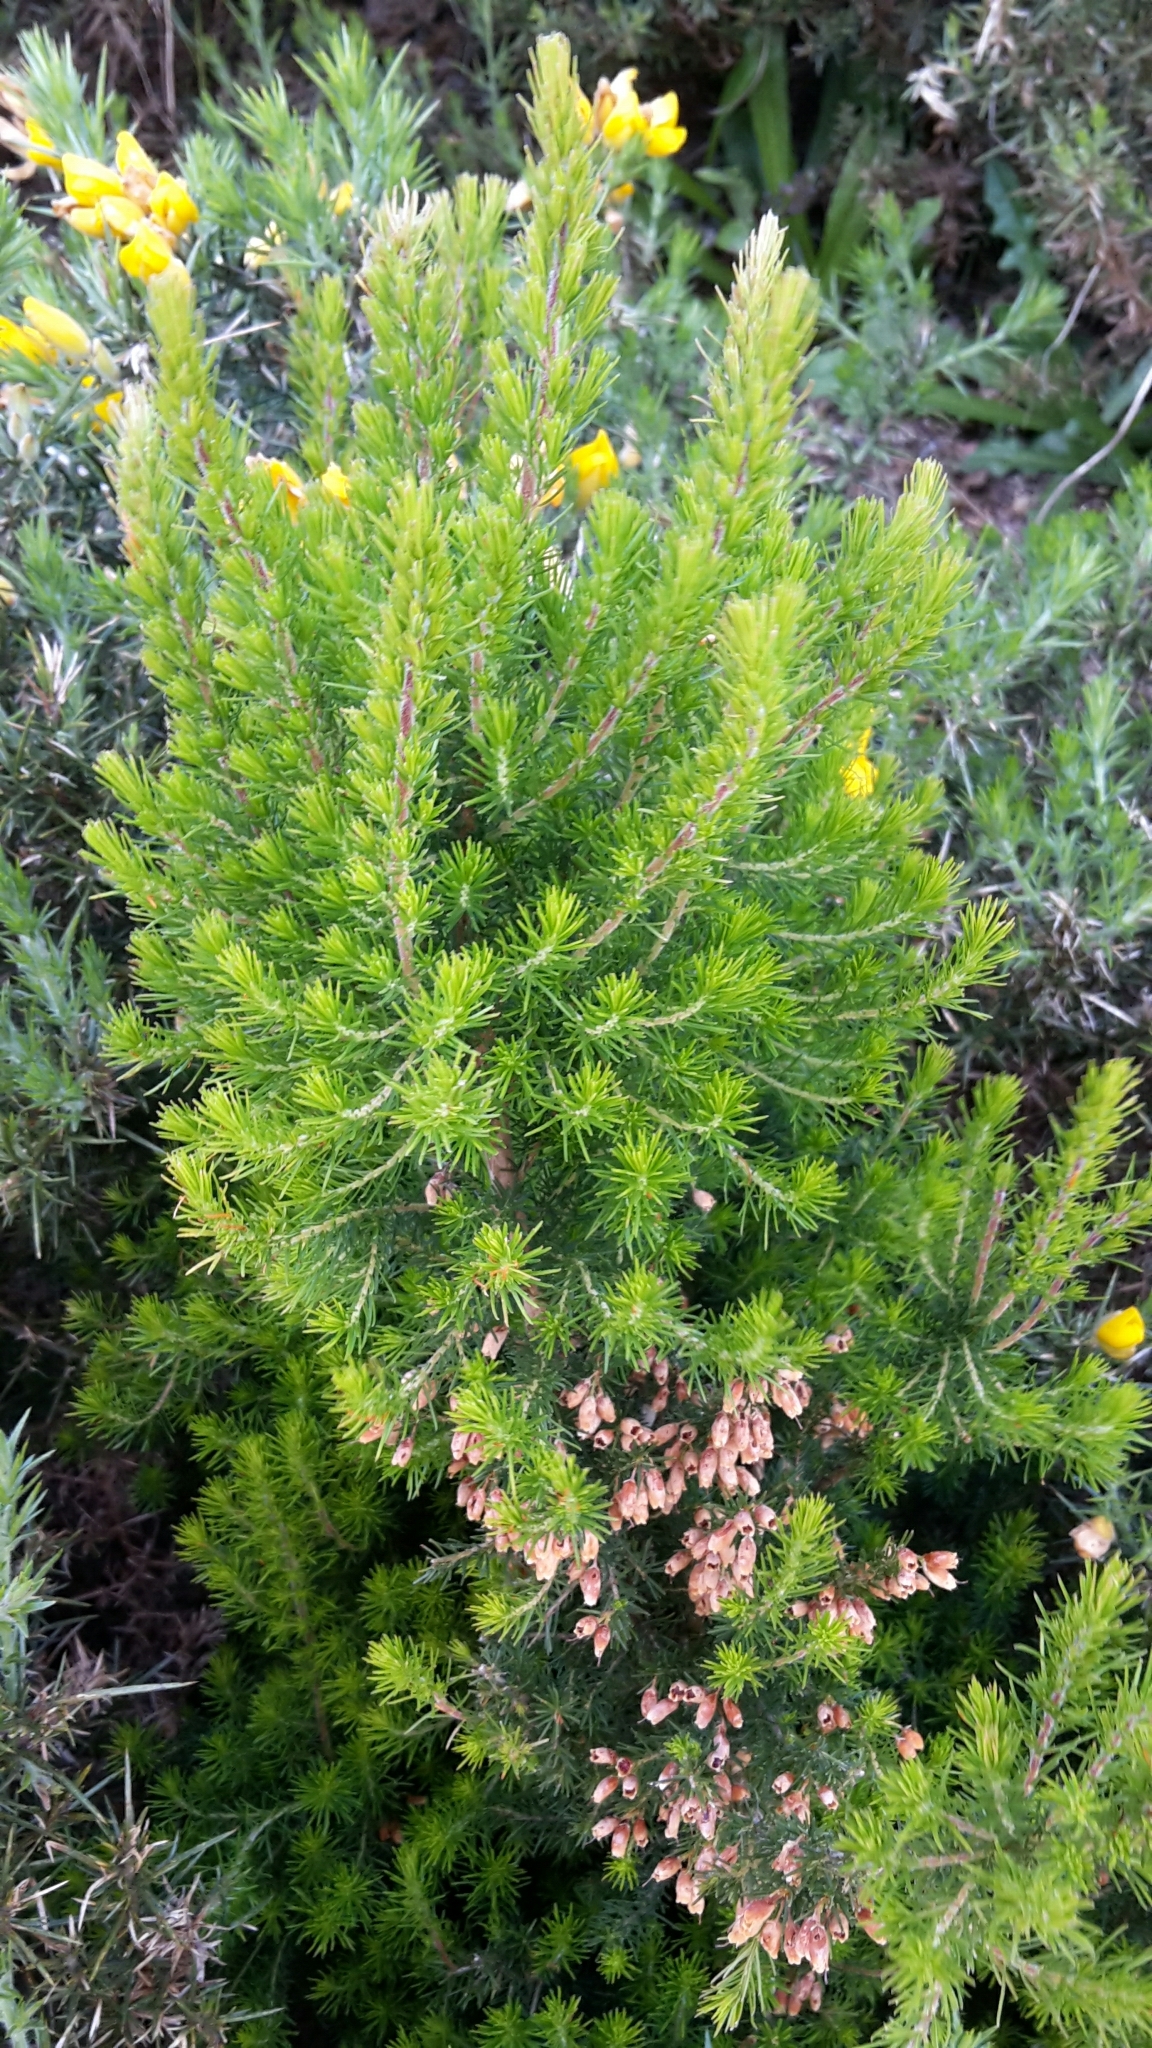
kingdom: Plantae
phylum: Tracheophyta
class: Magnoliopsida
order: Ericales
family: Ericaceae
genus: Erica
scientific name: Erica lusitanica
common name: Spanish heath
